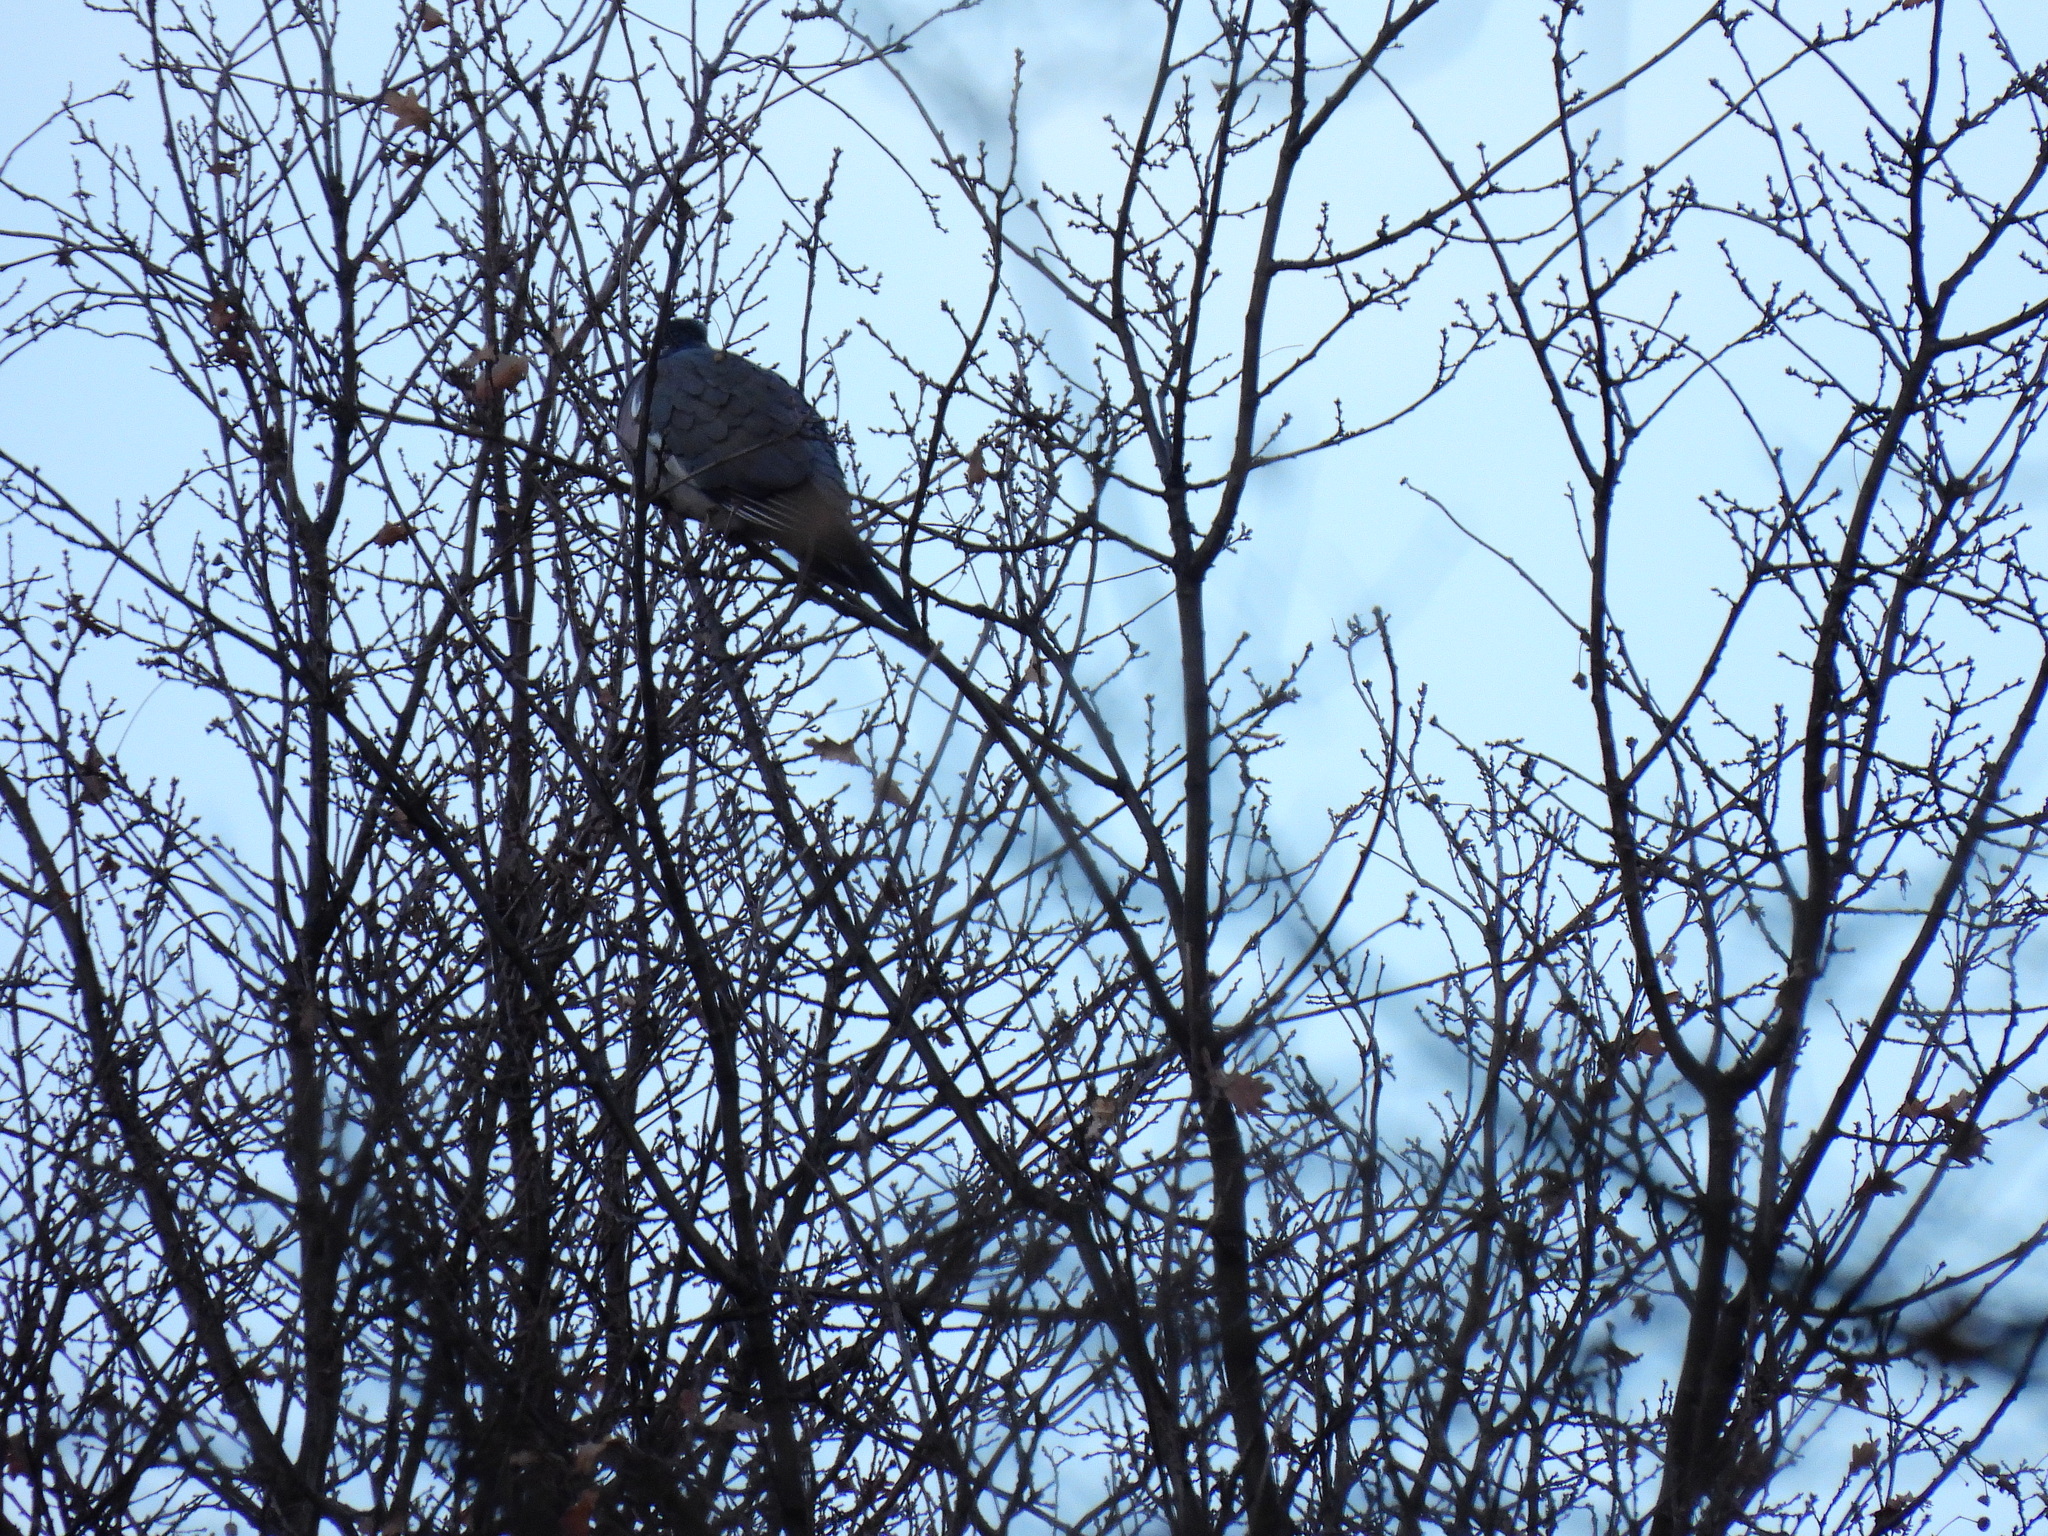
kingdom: Animalia
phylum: Chordata
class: Aves
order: Columbiformes
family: Columbidae
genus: Columba
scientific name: Columba palumbus
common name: Common wood pigeon
